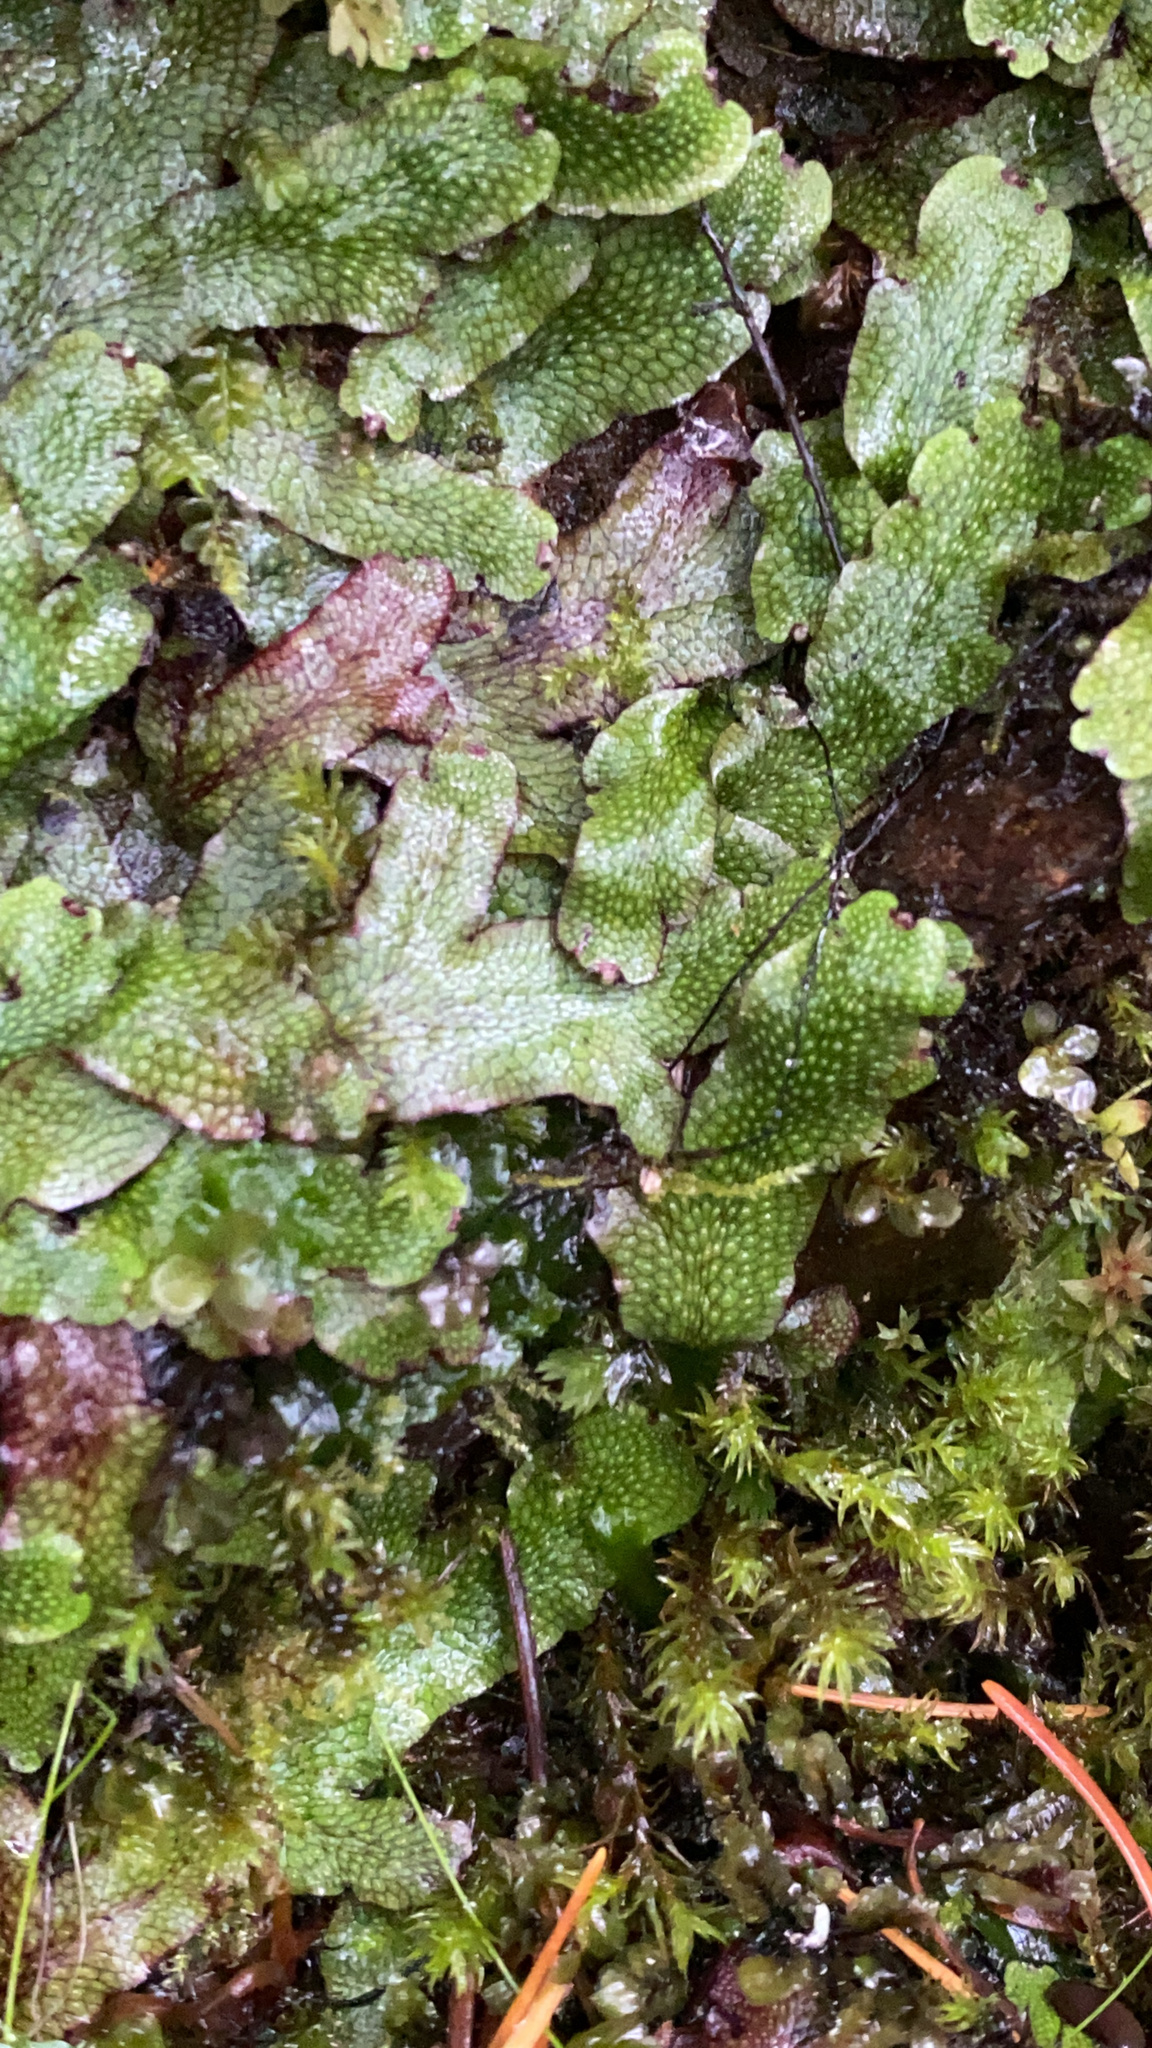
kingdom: Plantae
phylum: Marchantiophyta
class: Marchantiopsida
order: Marchantiales
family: Conocephalaceae
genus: Conocephalum
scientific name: Conocephalum salebrosum
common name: Cat-tongue liverwort
